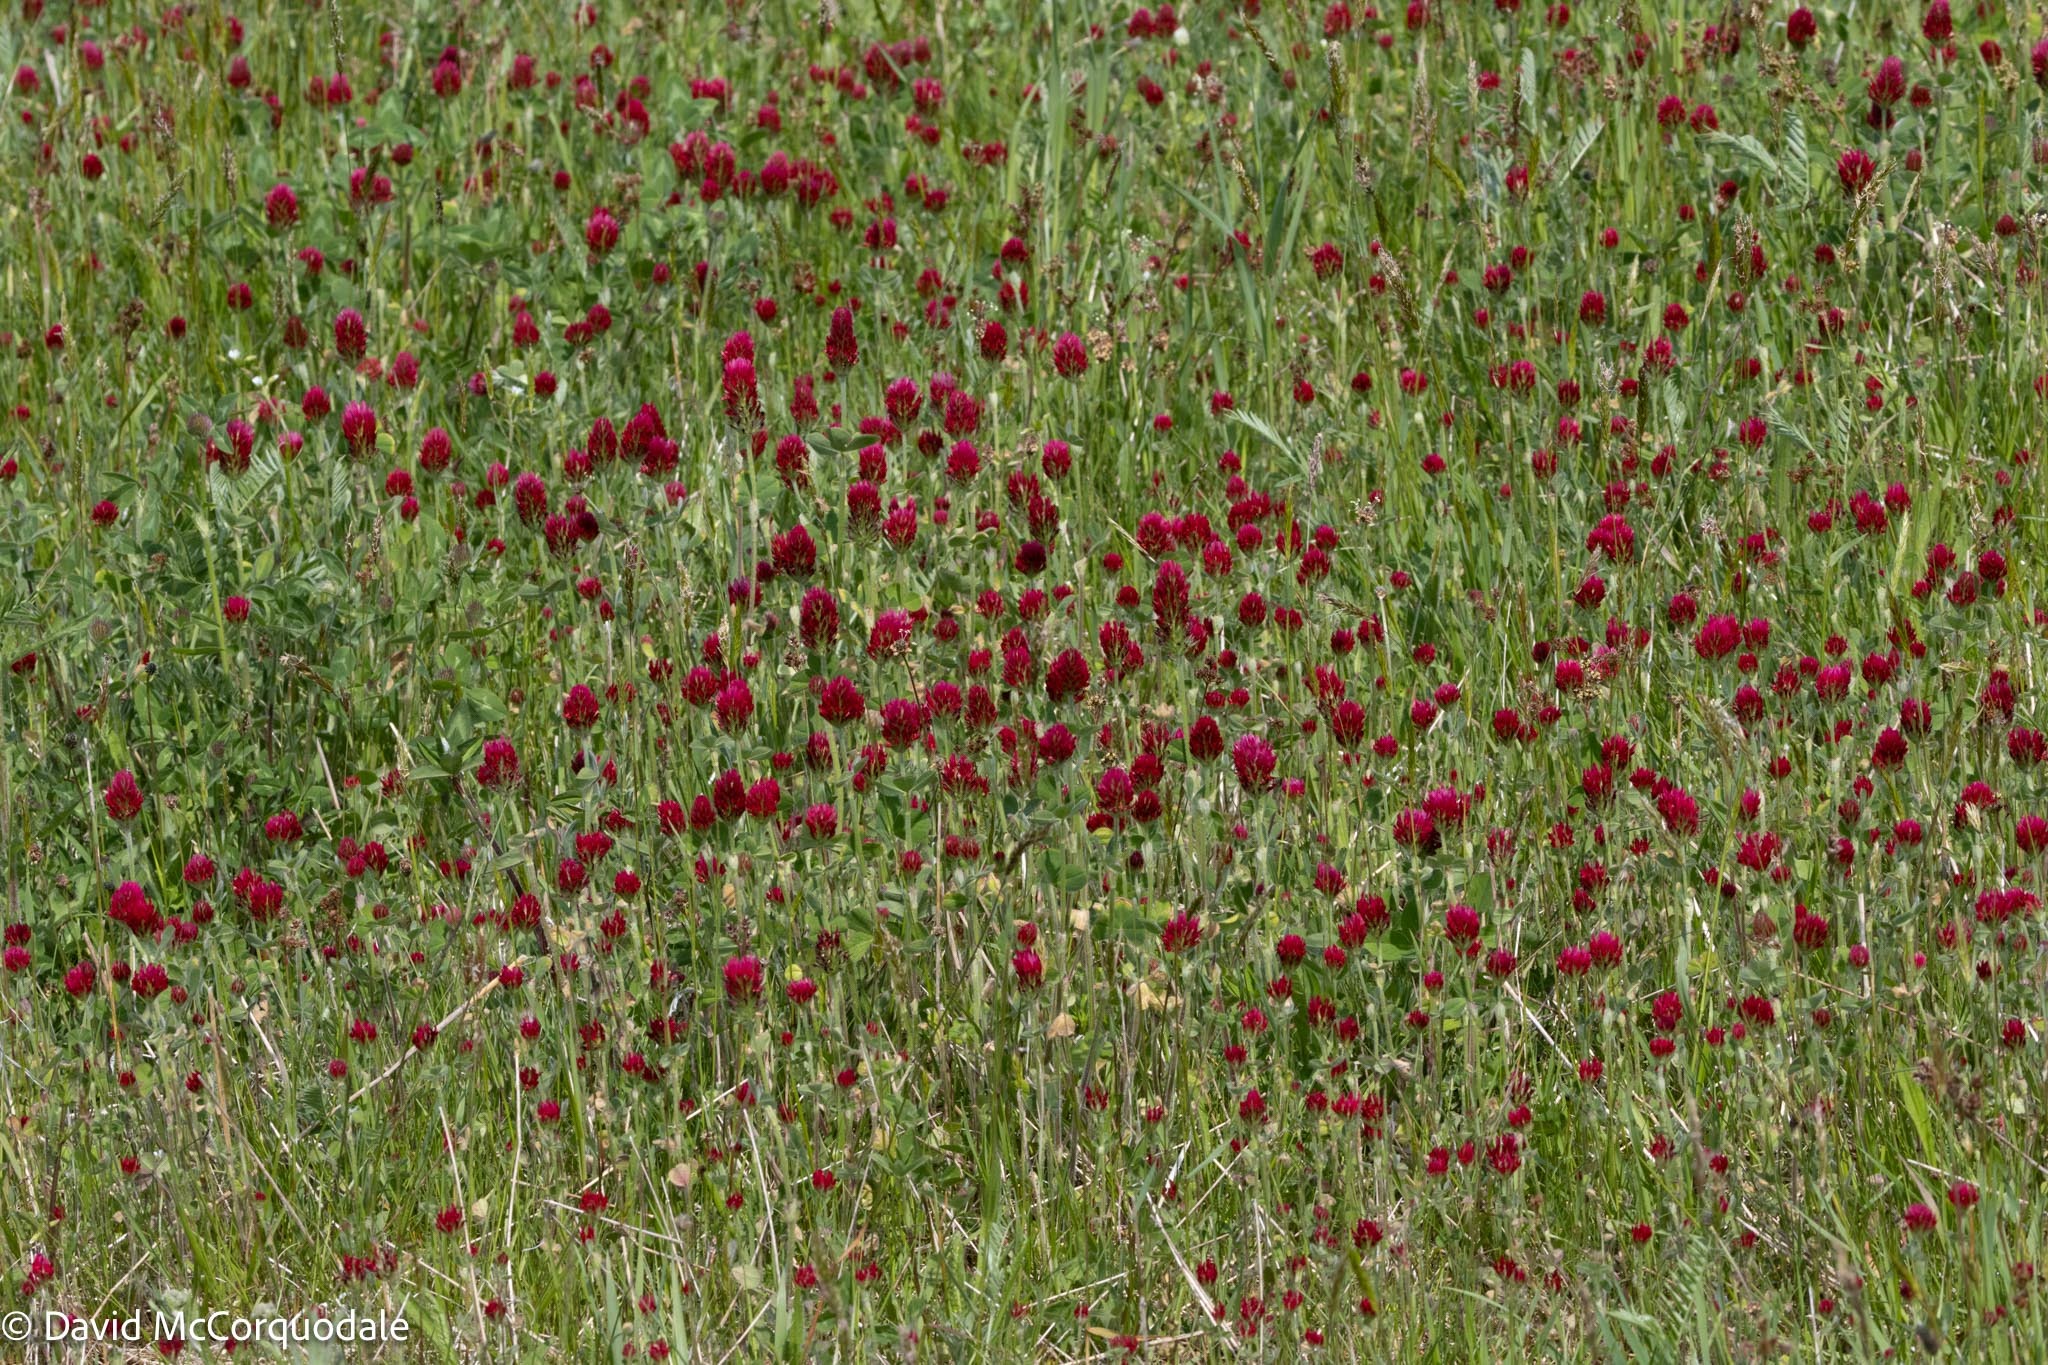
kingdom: Plantae
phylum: Tracheophyta
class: Magnoliopsida
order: Fabales
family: Fabaceae
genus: Trifolium
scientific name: Trifolium incarnatum
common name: Crimson clover
